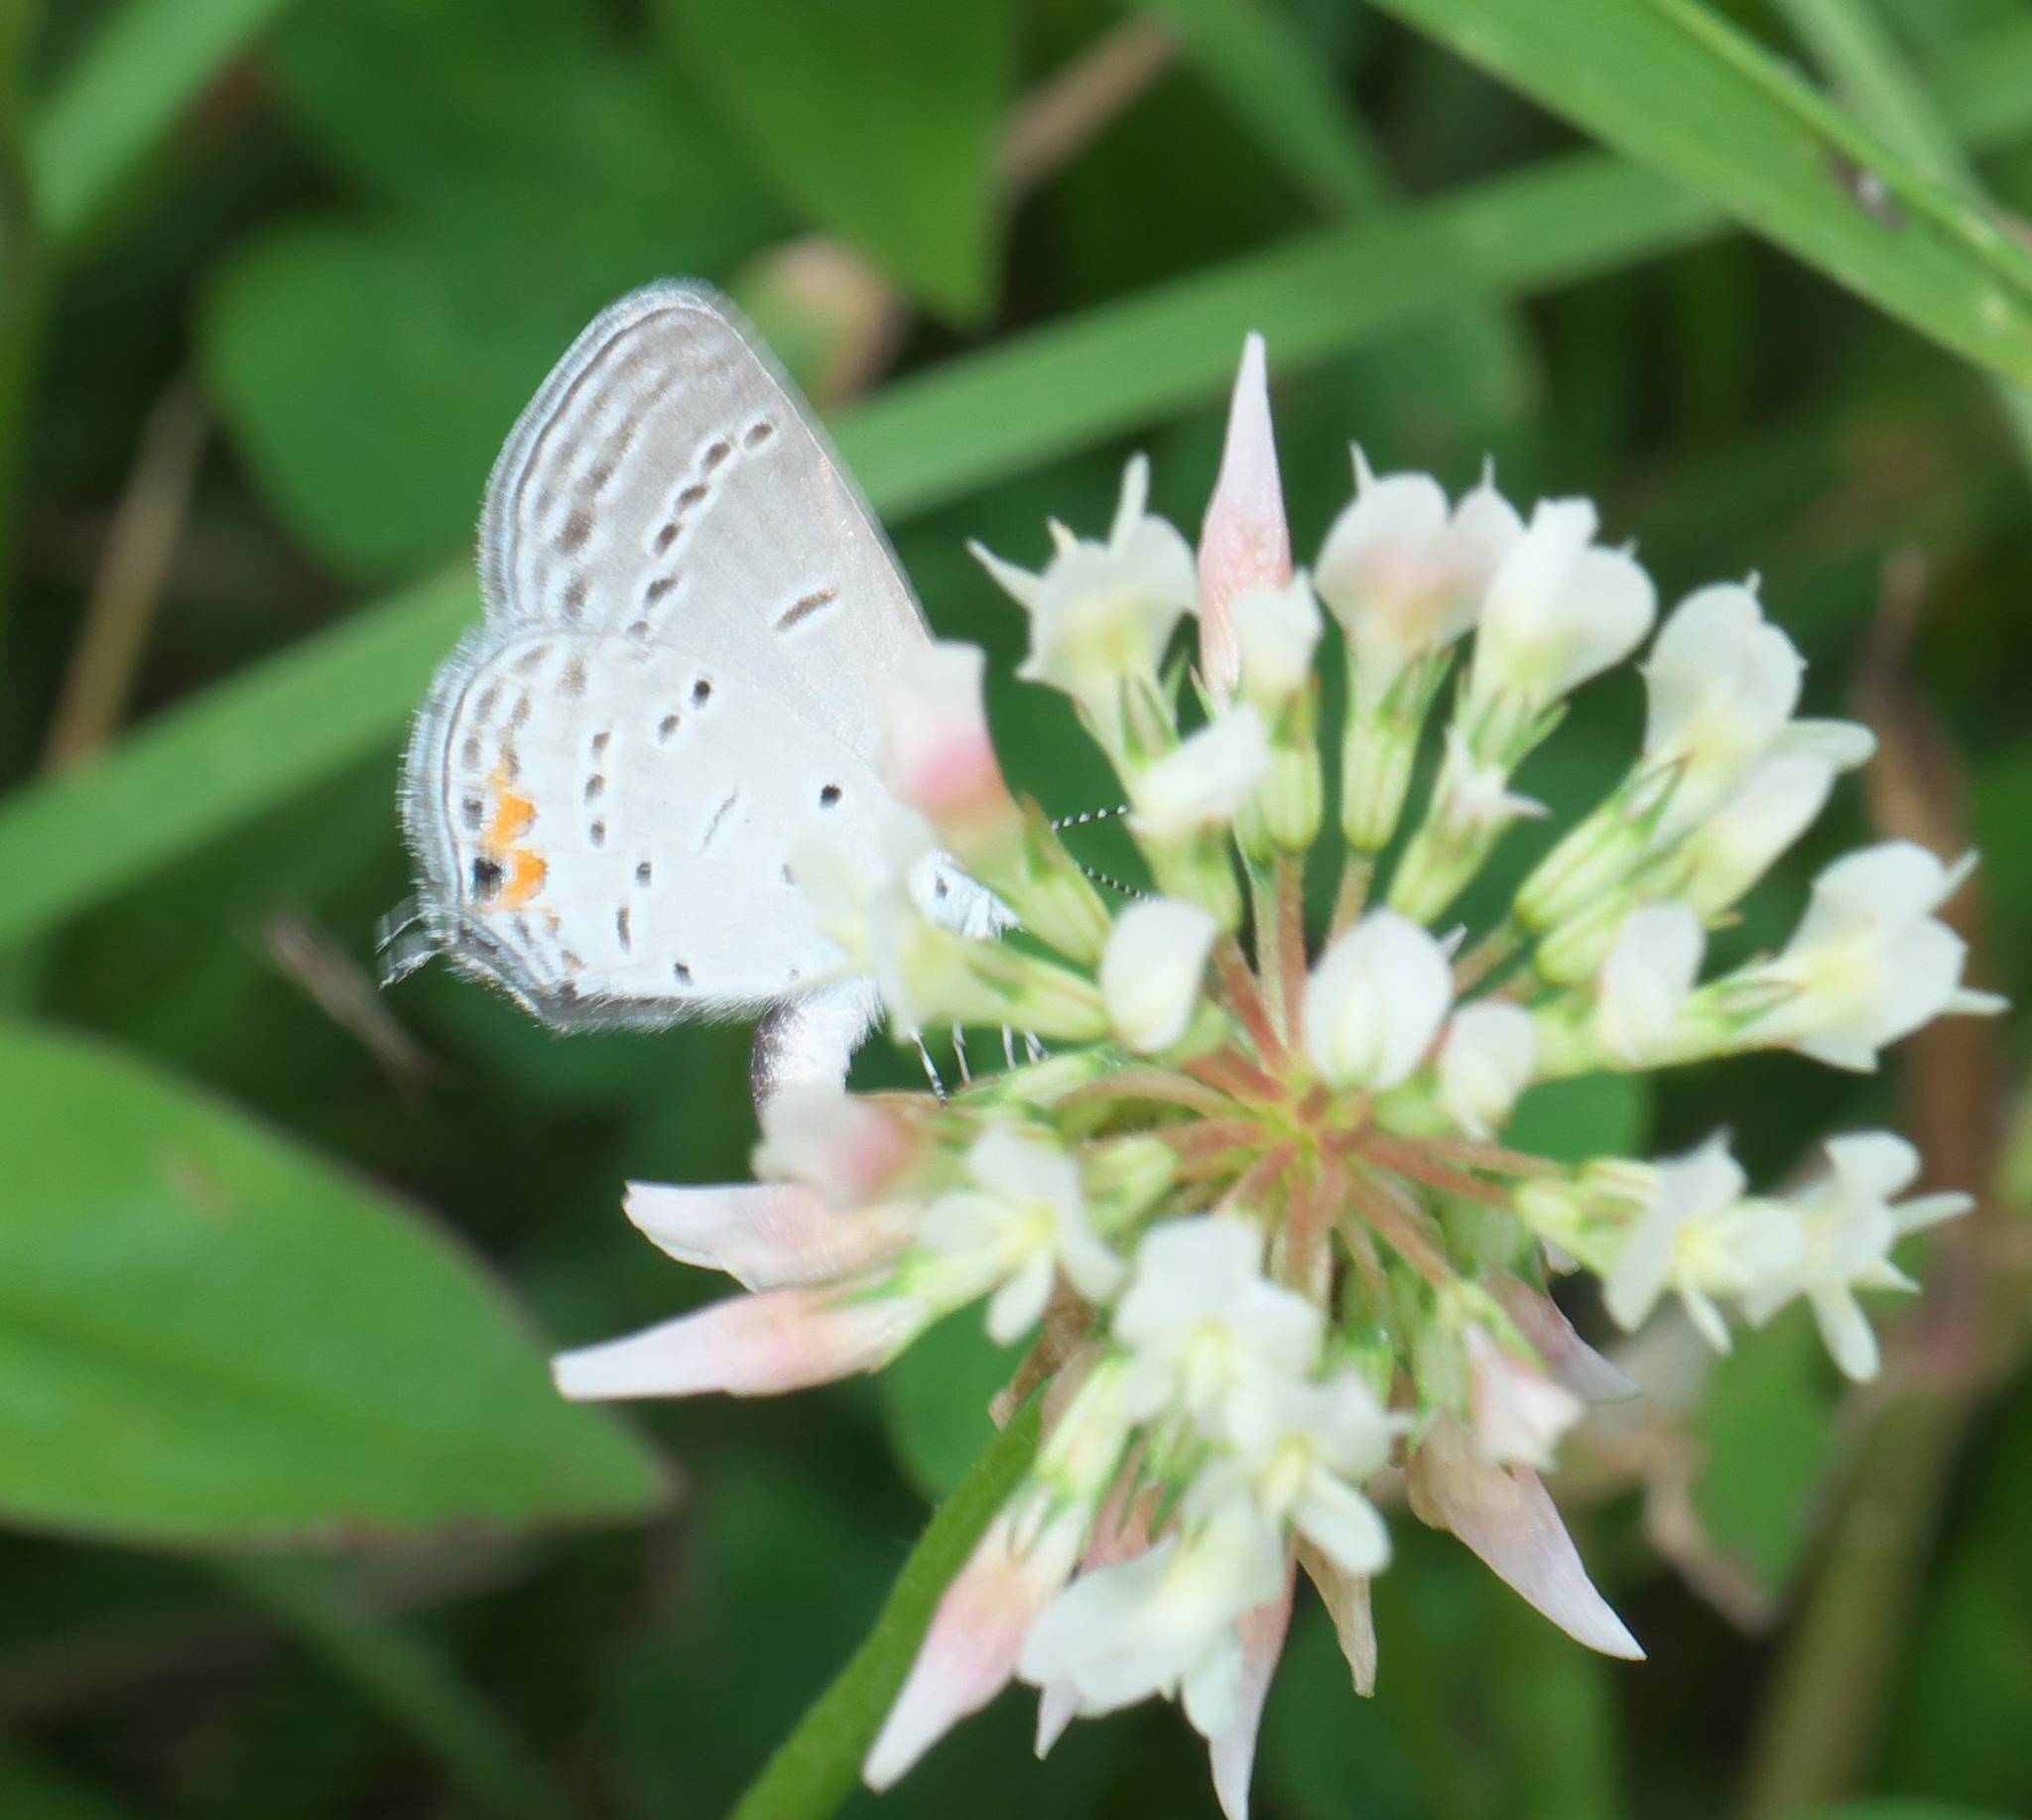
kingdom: Animalia
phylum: Arthropoda
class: Insecta
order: Lepidoptera
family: Lycaenidae
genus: Elkalyce
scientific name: Elkalyce comyntas
